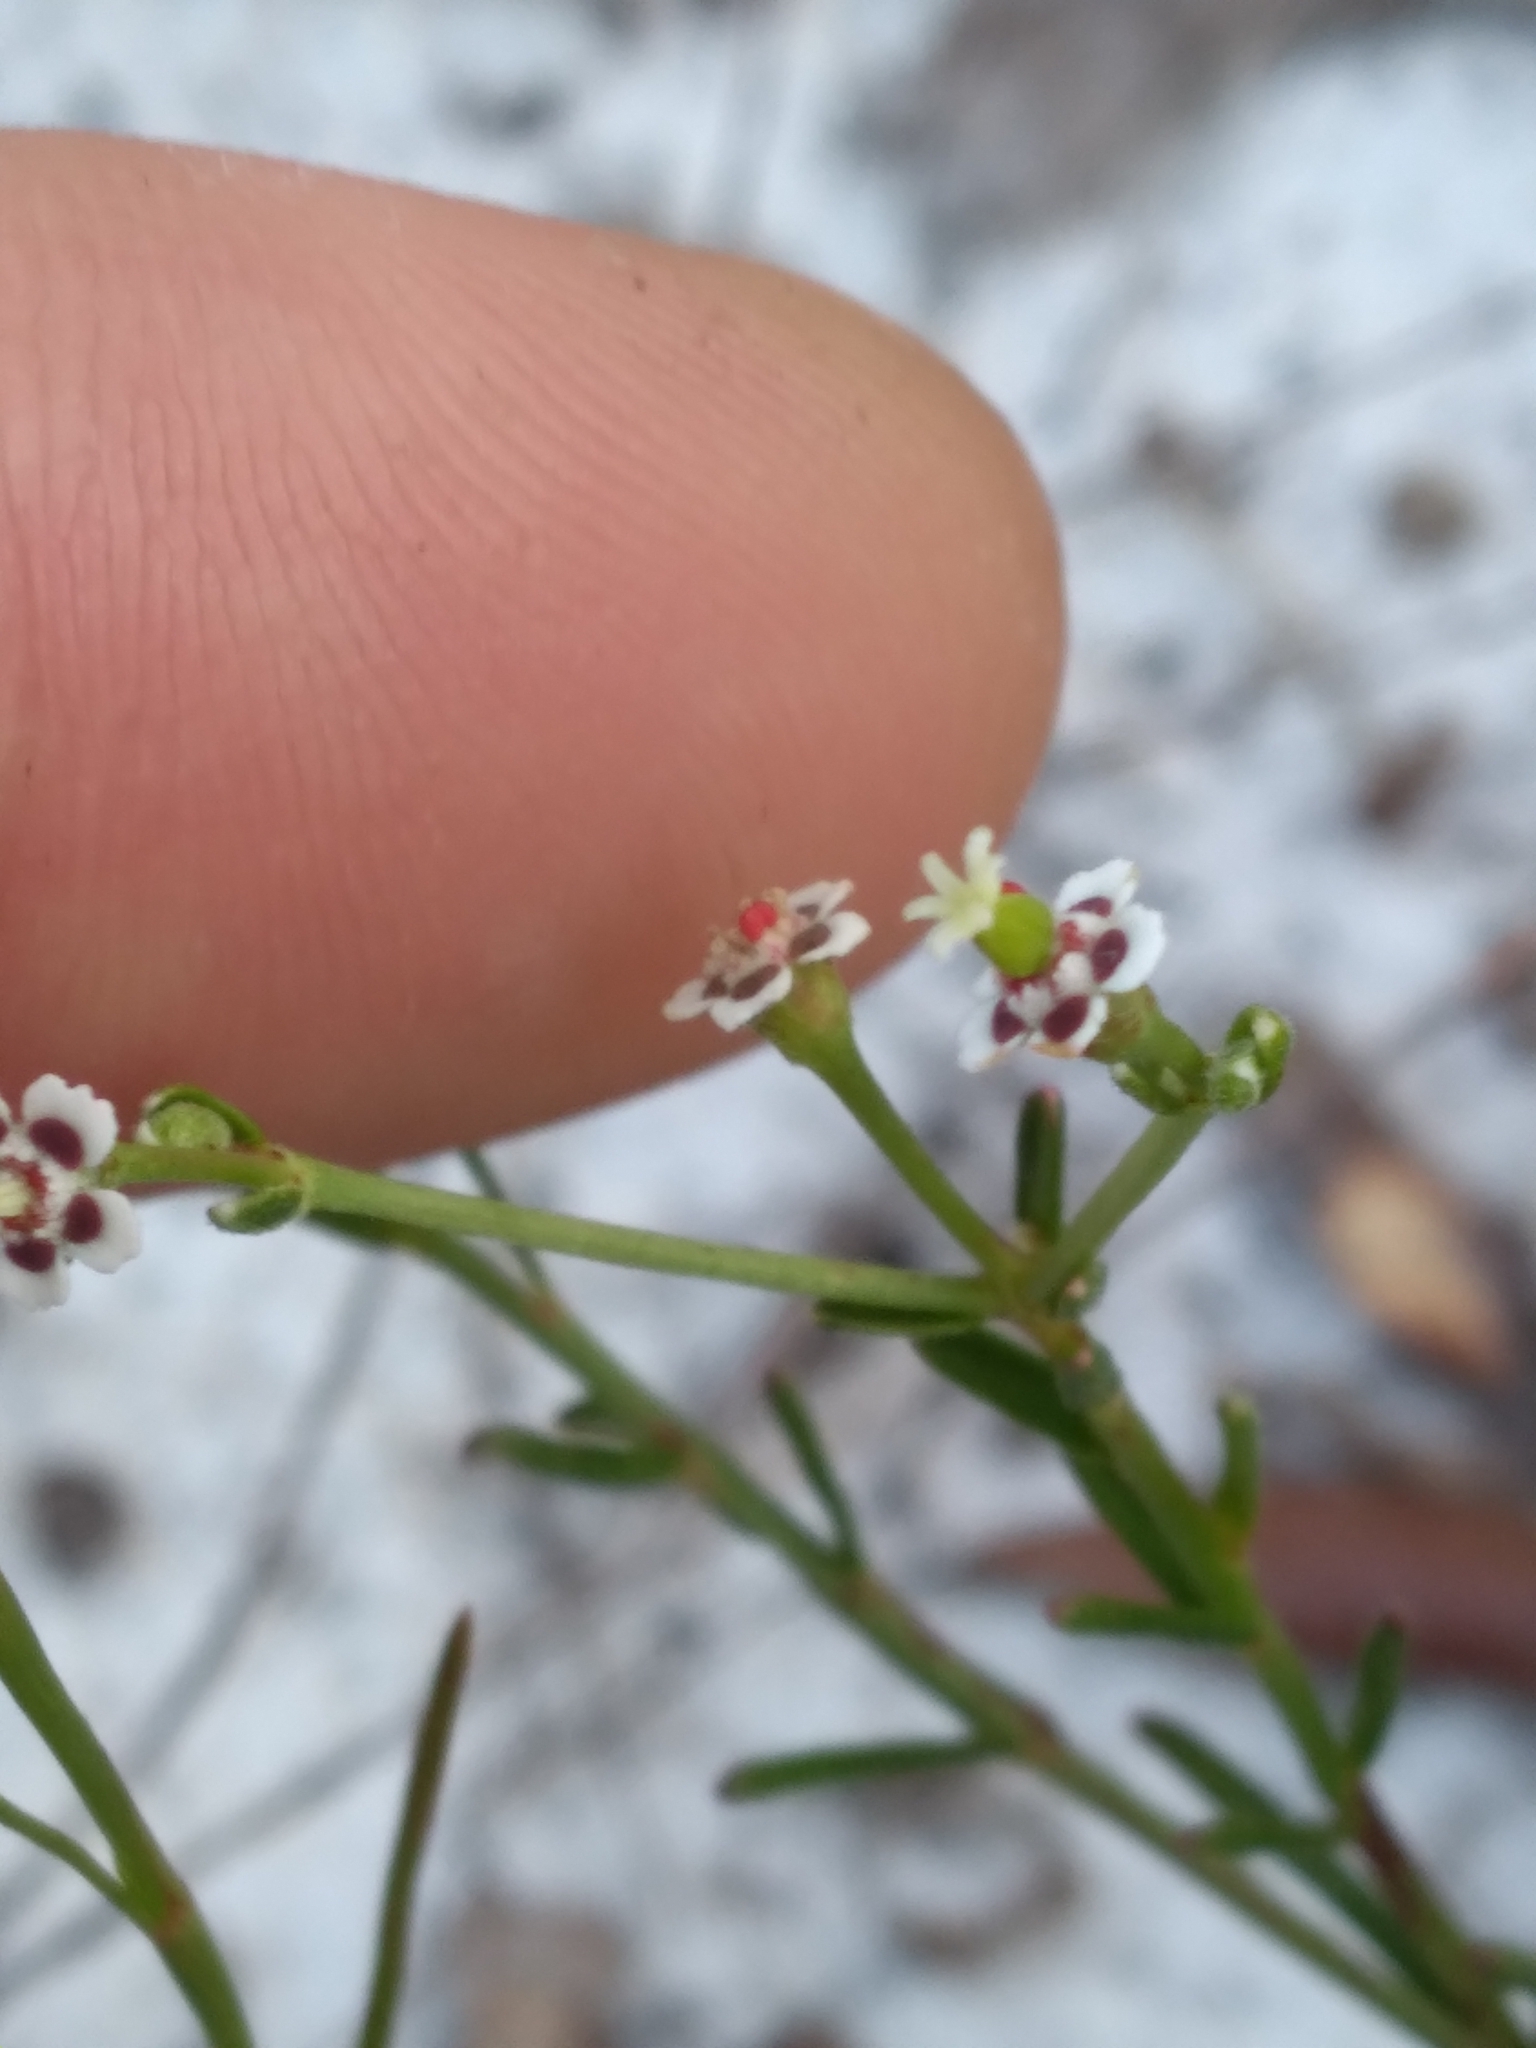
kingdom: Plantae
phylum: Tracheophyta
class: Magnoliopsida
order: Malpighiales
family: Euphorbiaceae
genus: Euphorbia
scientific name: Euphorbia polyphylla
